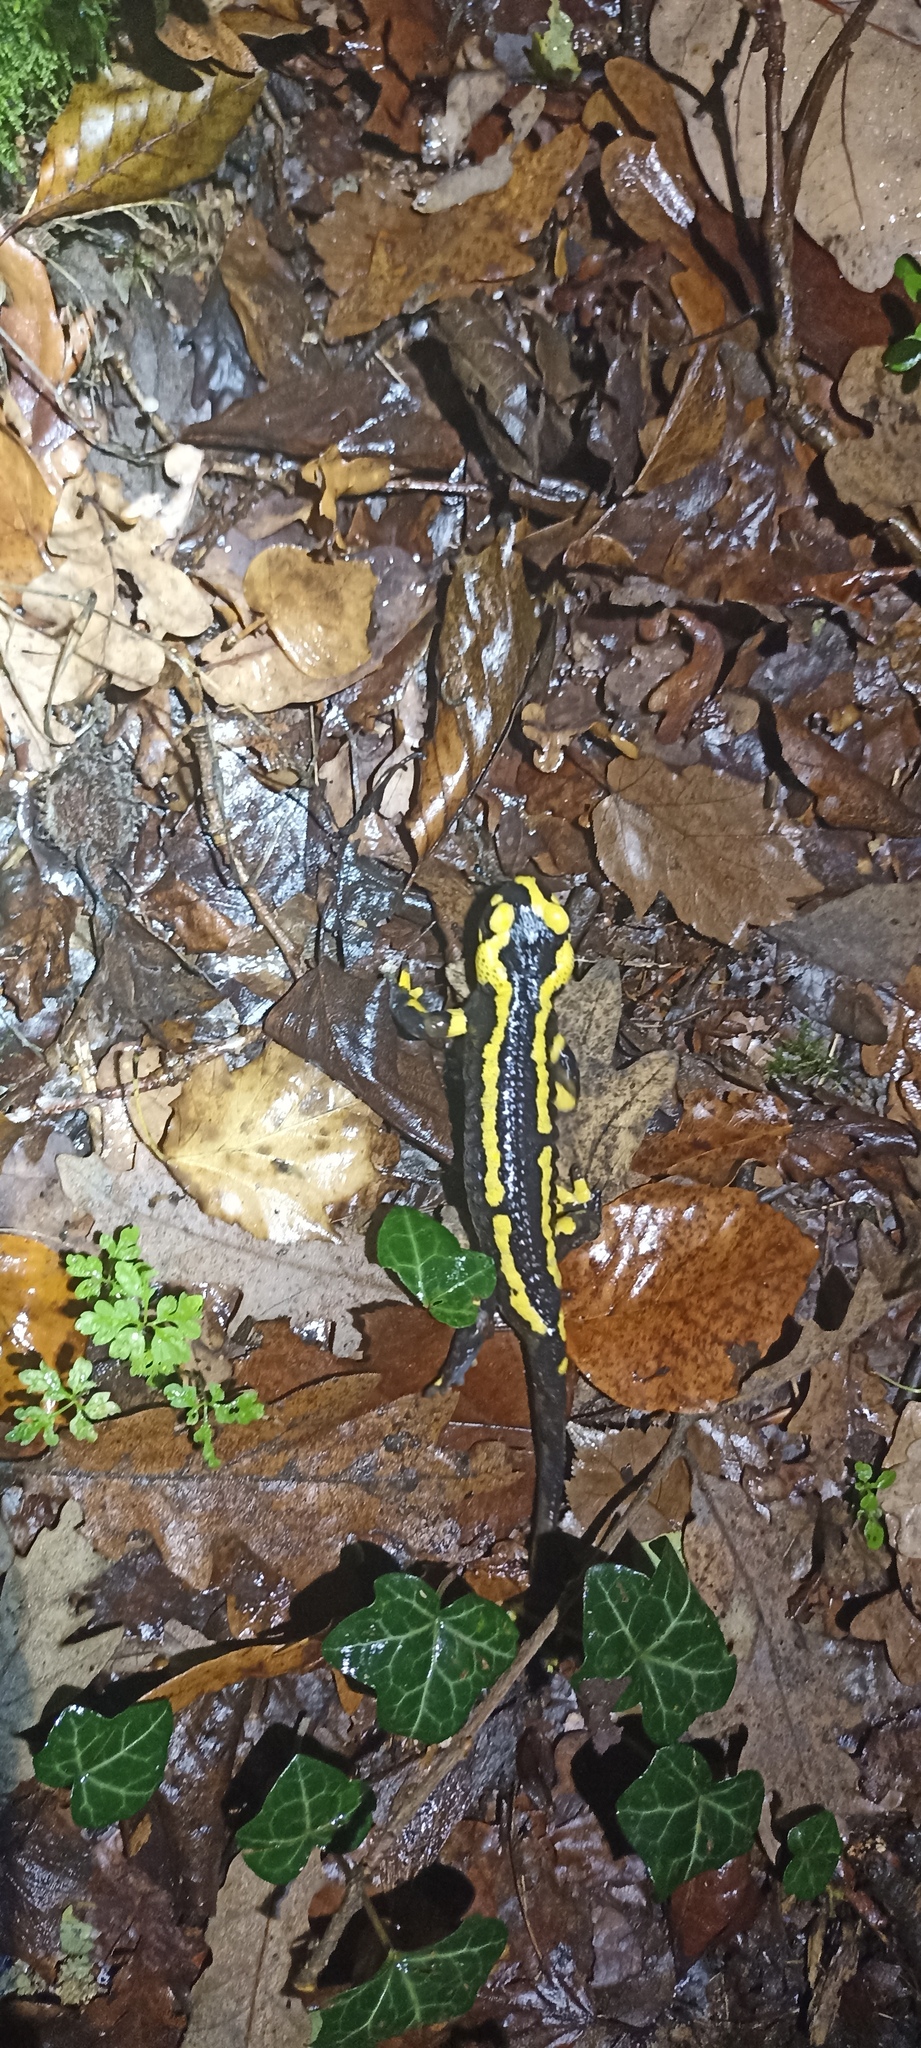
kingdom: Animalia
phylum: Chordata
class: Amphibia
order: Caudata
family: Salamandridae
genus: Salamandra
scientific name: Salamandra salamandra
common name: Fire salamander
